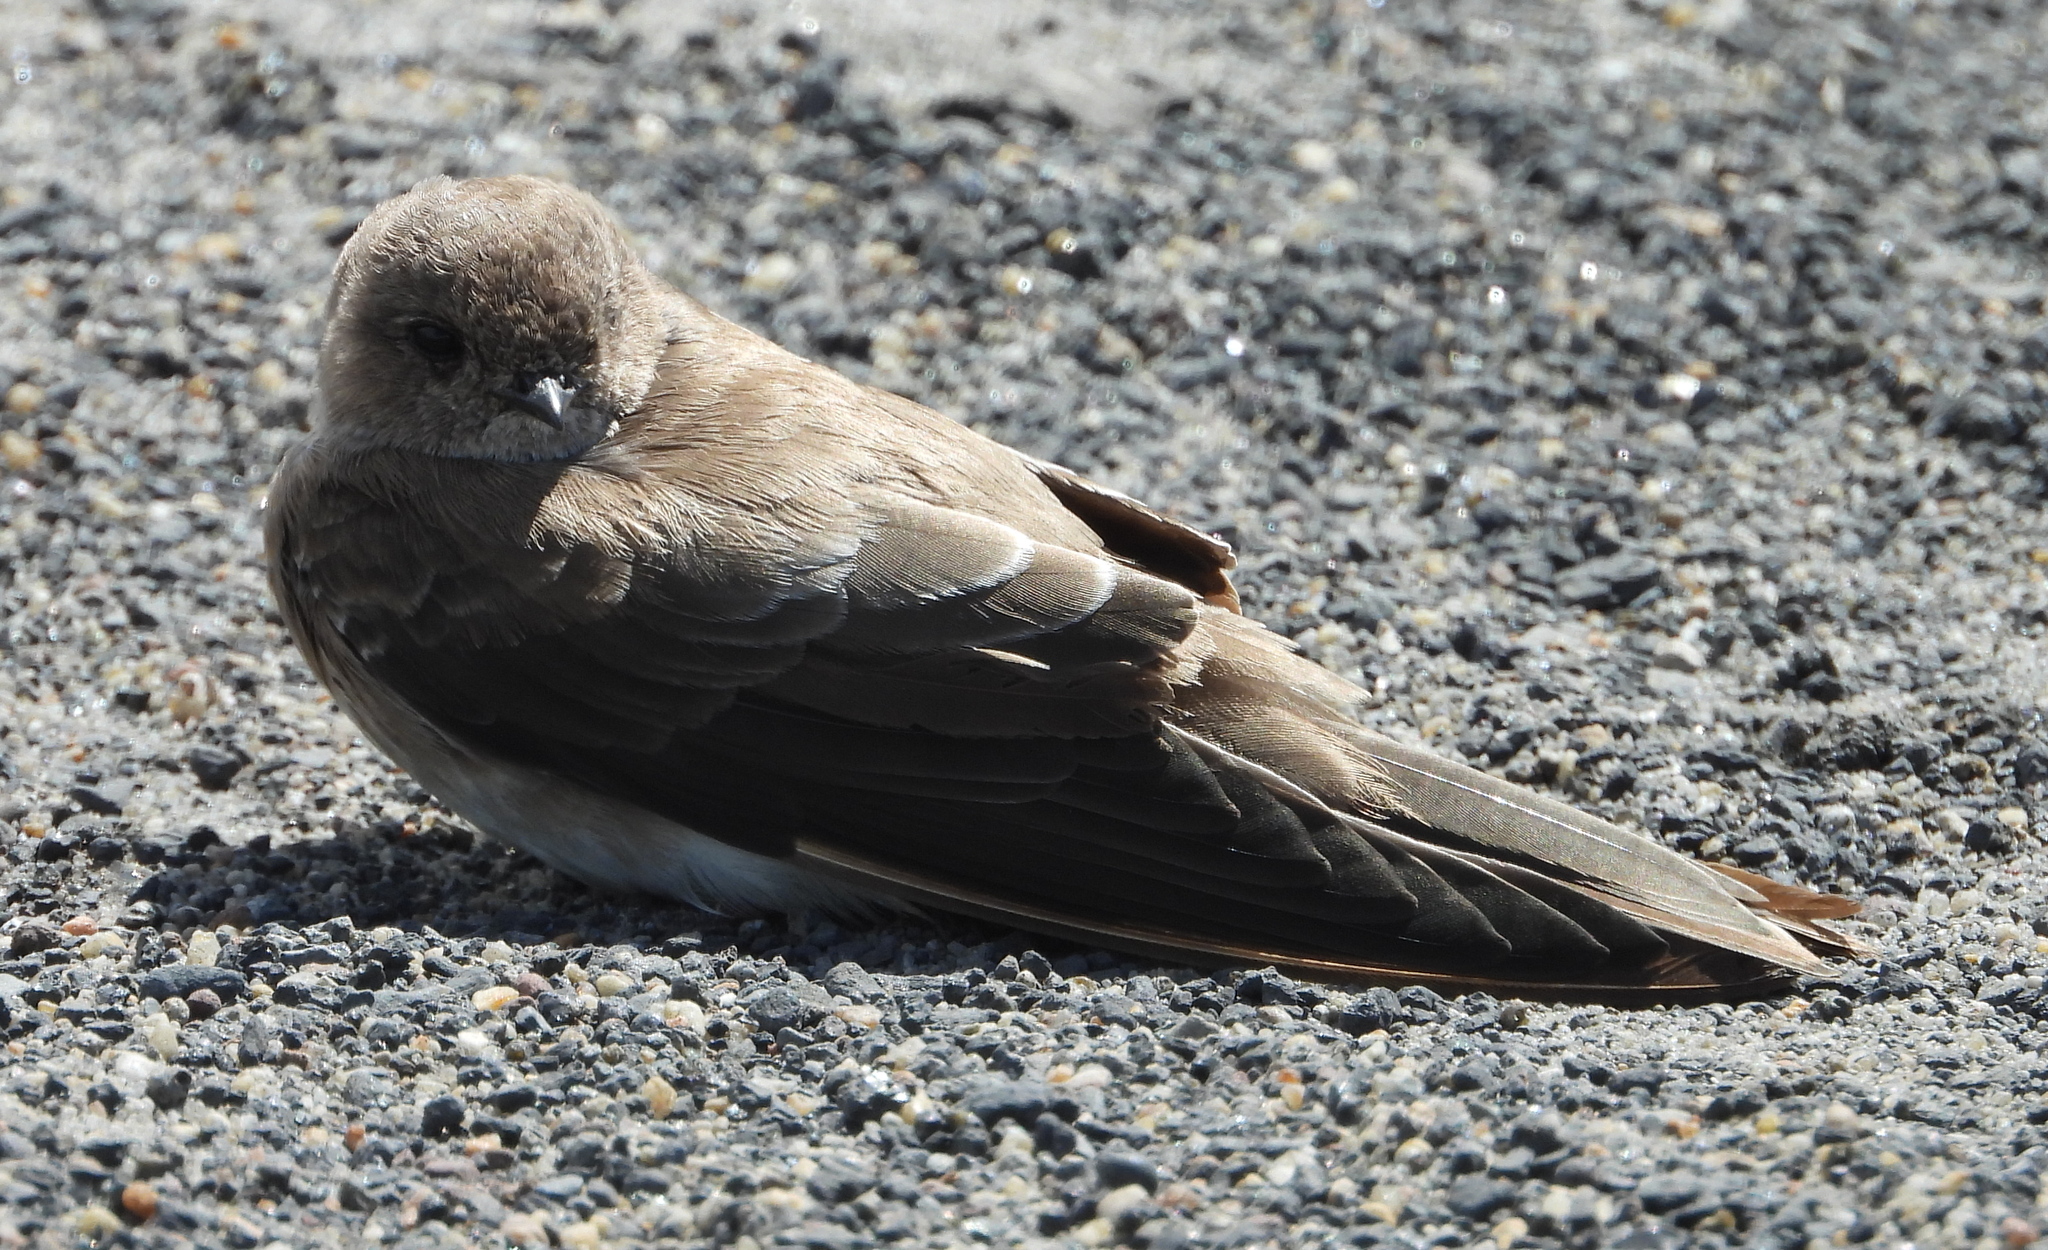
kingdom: Animalia
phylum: Chordata
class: Aves
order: Passeriformes
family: Hirundinidae
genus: Riparia
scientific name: Riparia paludicola
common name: Brown-throated martin
